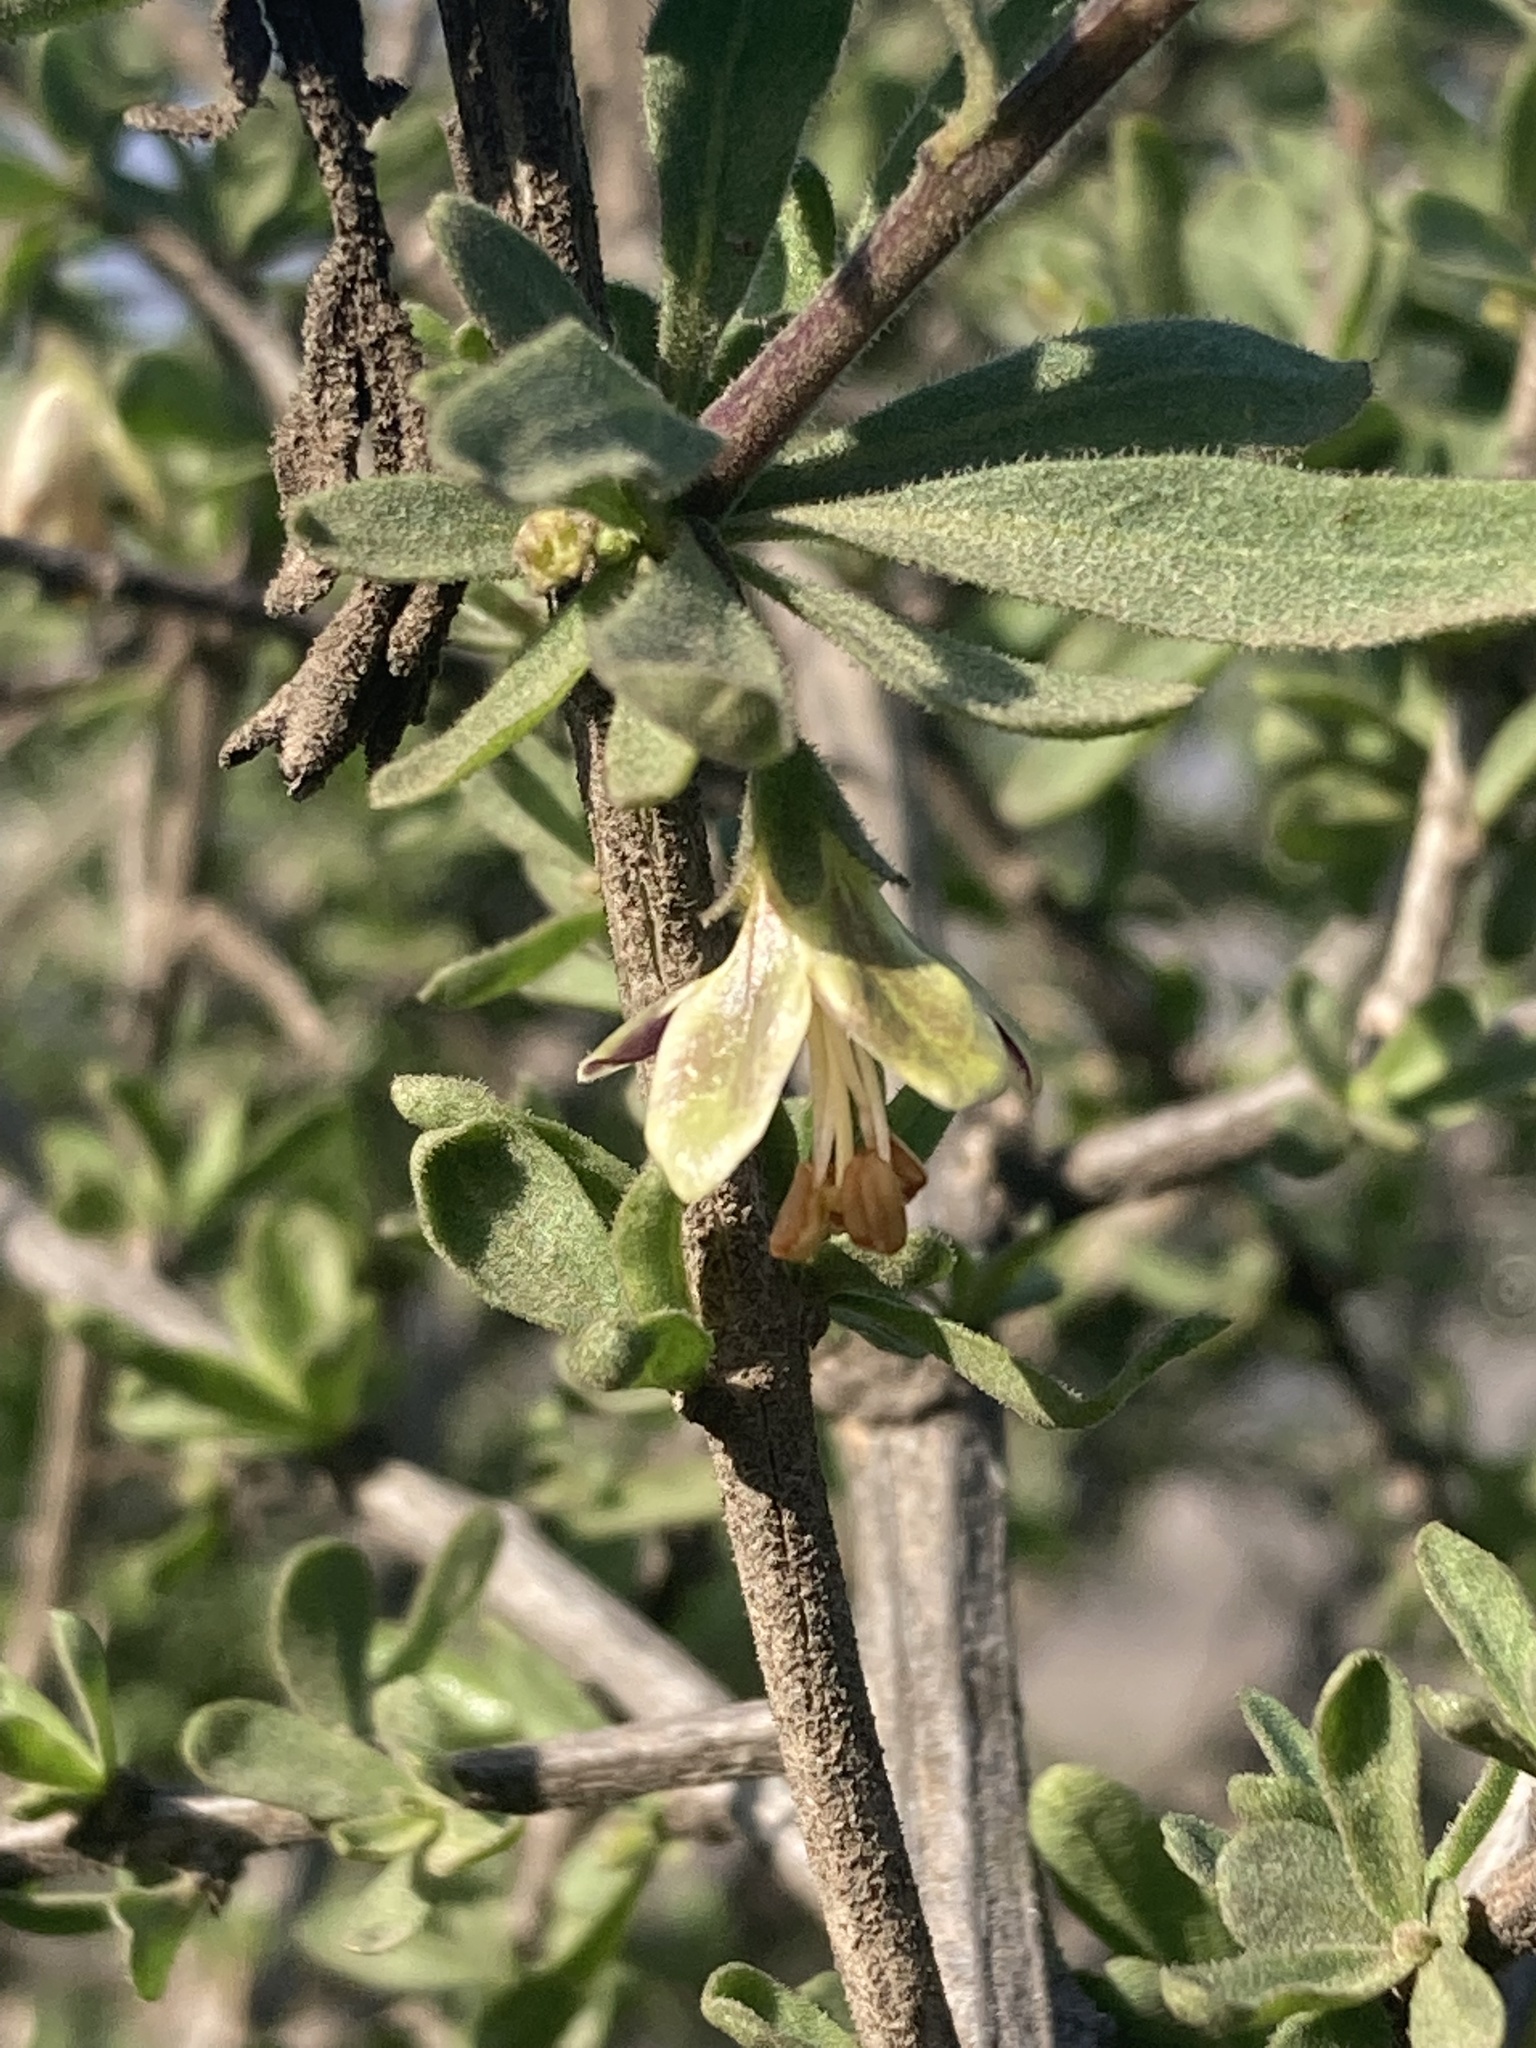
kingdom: Plantae
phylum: Tracheophyta
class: Magnoliopsida
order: Solanales
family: Solanaceae
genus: Lycium
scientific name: Lycium chilense
